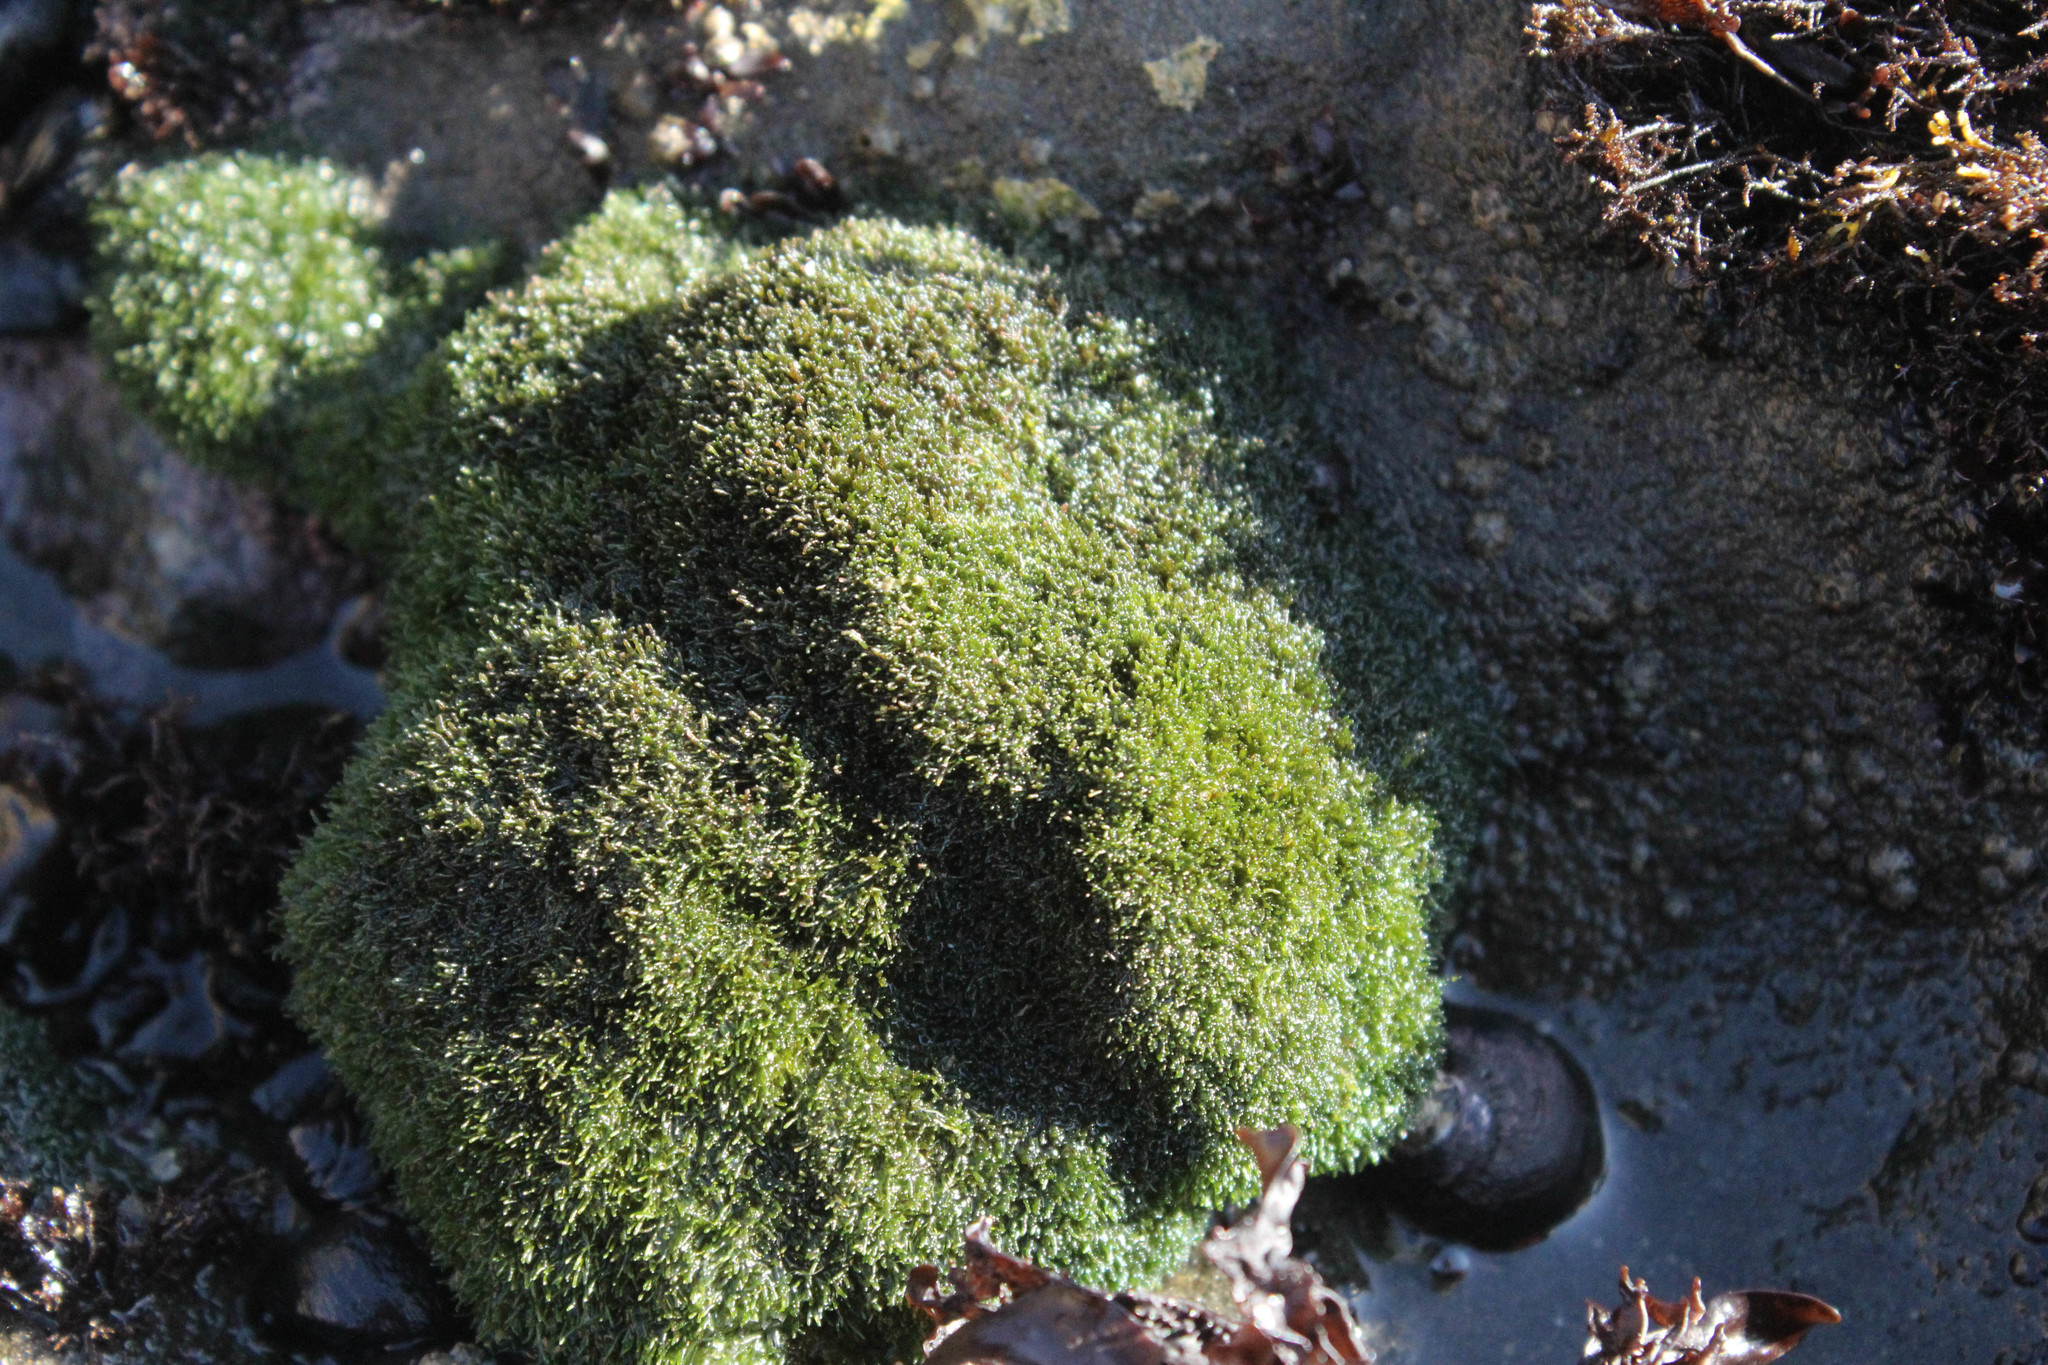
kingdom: Plantae
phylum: Chlorophyta
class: Ulvophyceae
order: Cladophorales
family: Cladophoraceae
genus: Cladophora
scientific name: Cladophora columbiana
